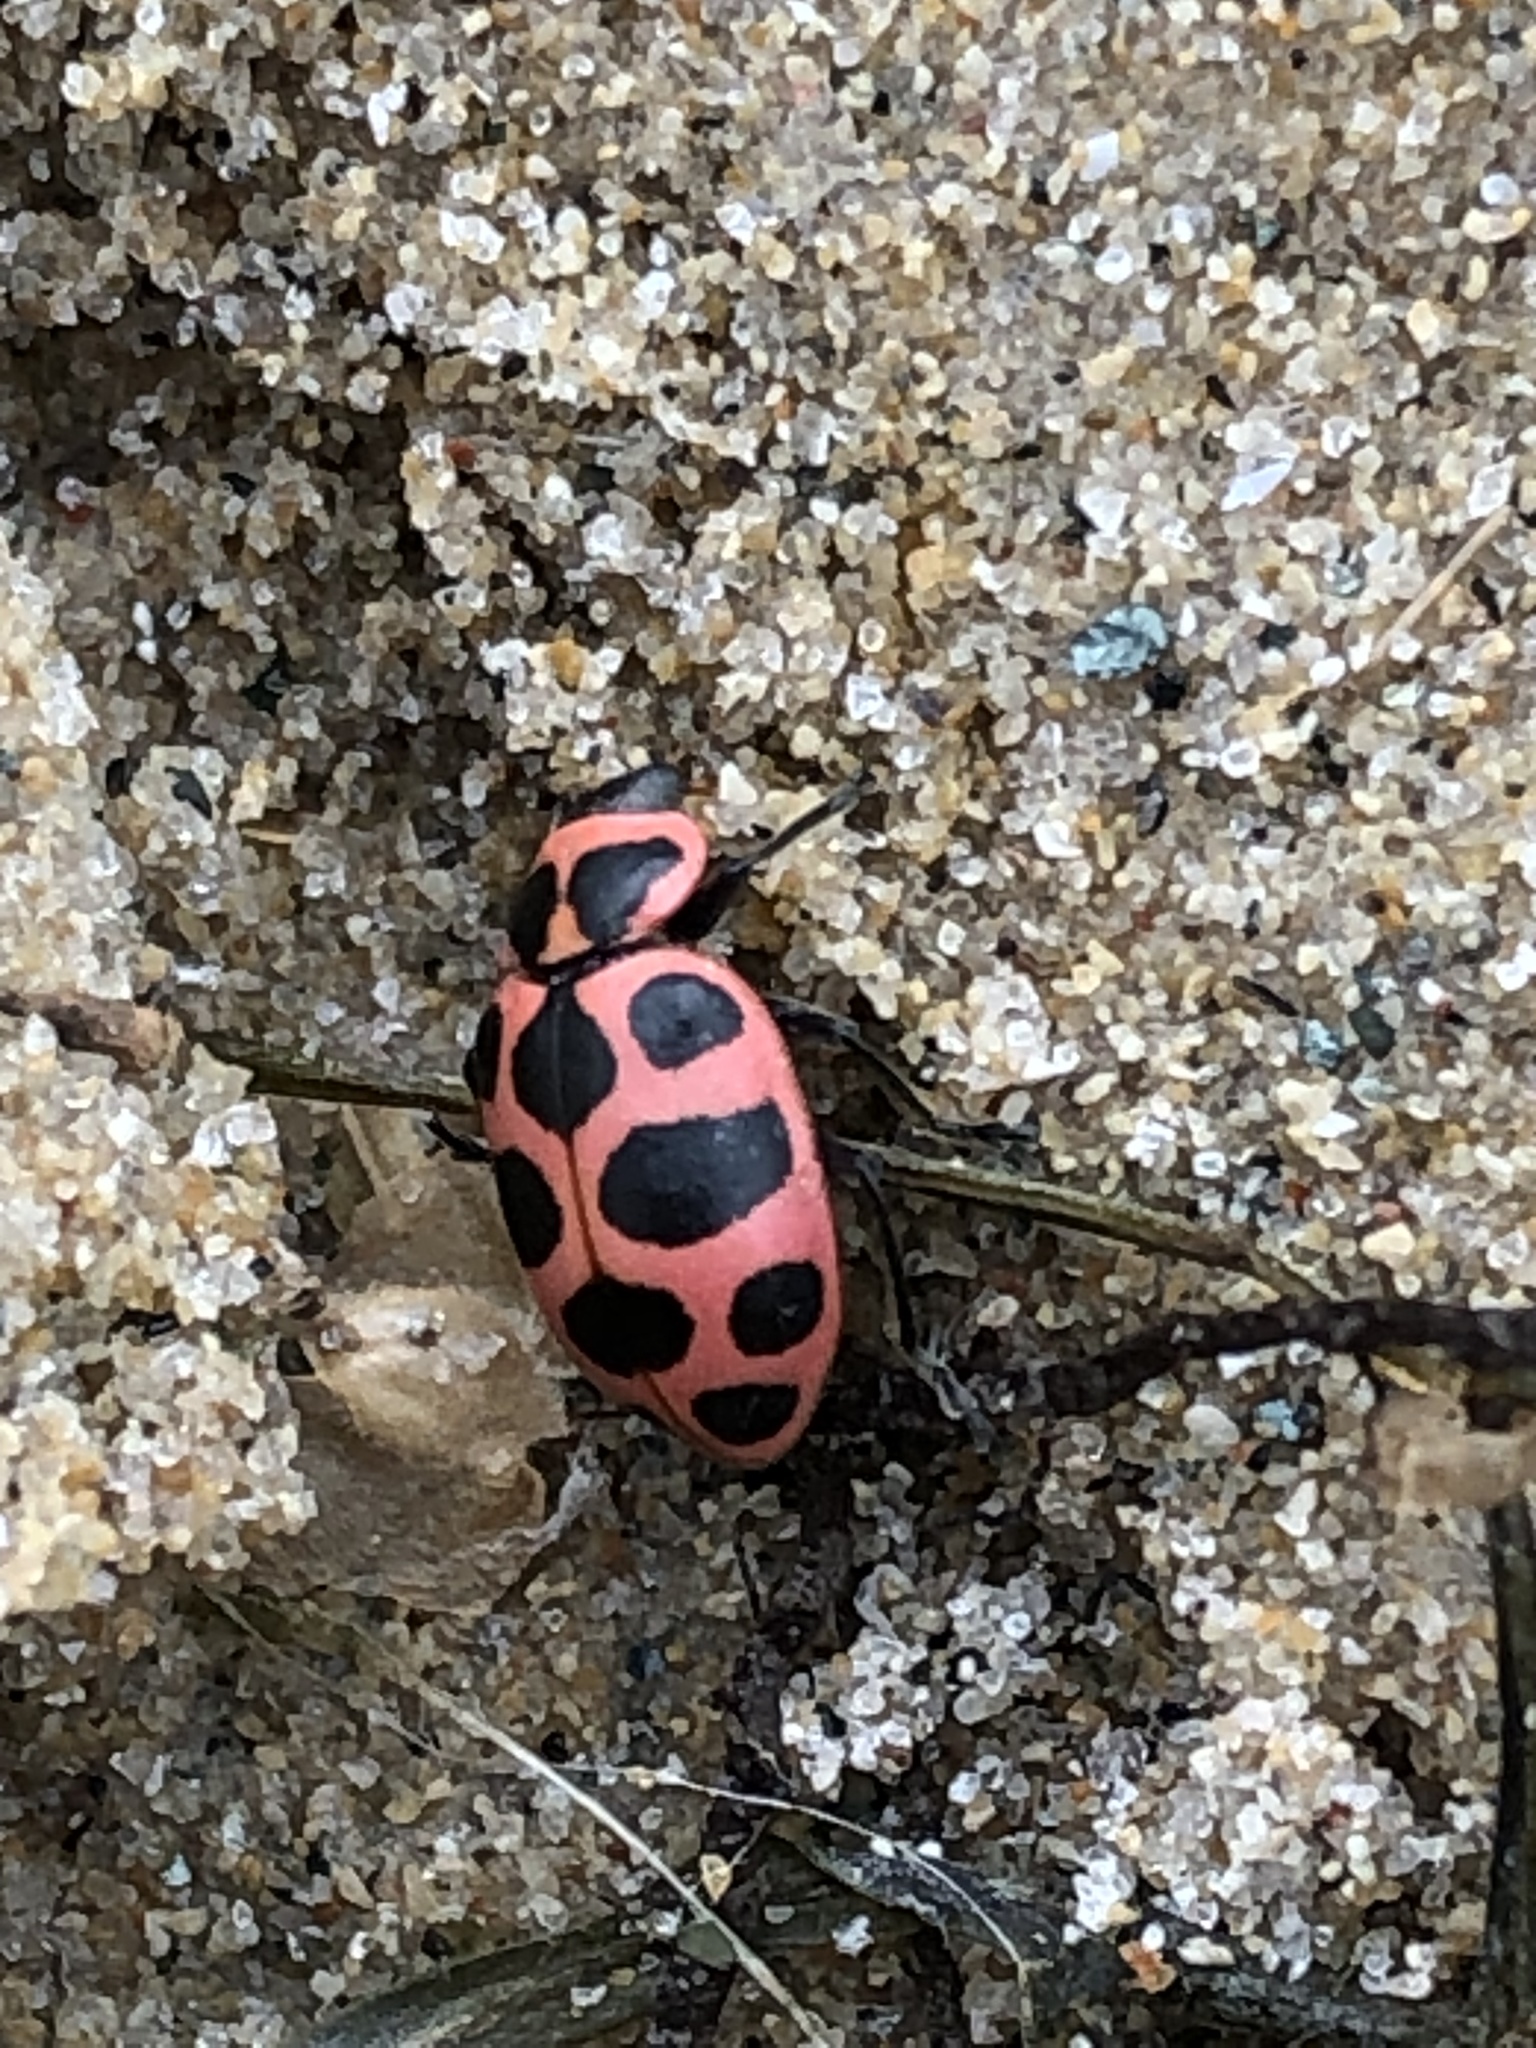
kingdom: Animalia
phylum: Arthropoda
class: Insecta
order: Coleoptera
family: Coccinellidae
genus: Coleomegilla
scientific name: Coleomegilla maculata
